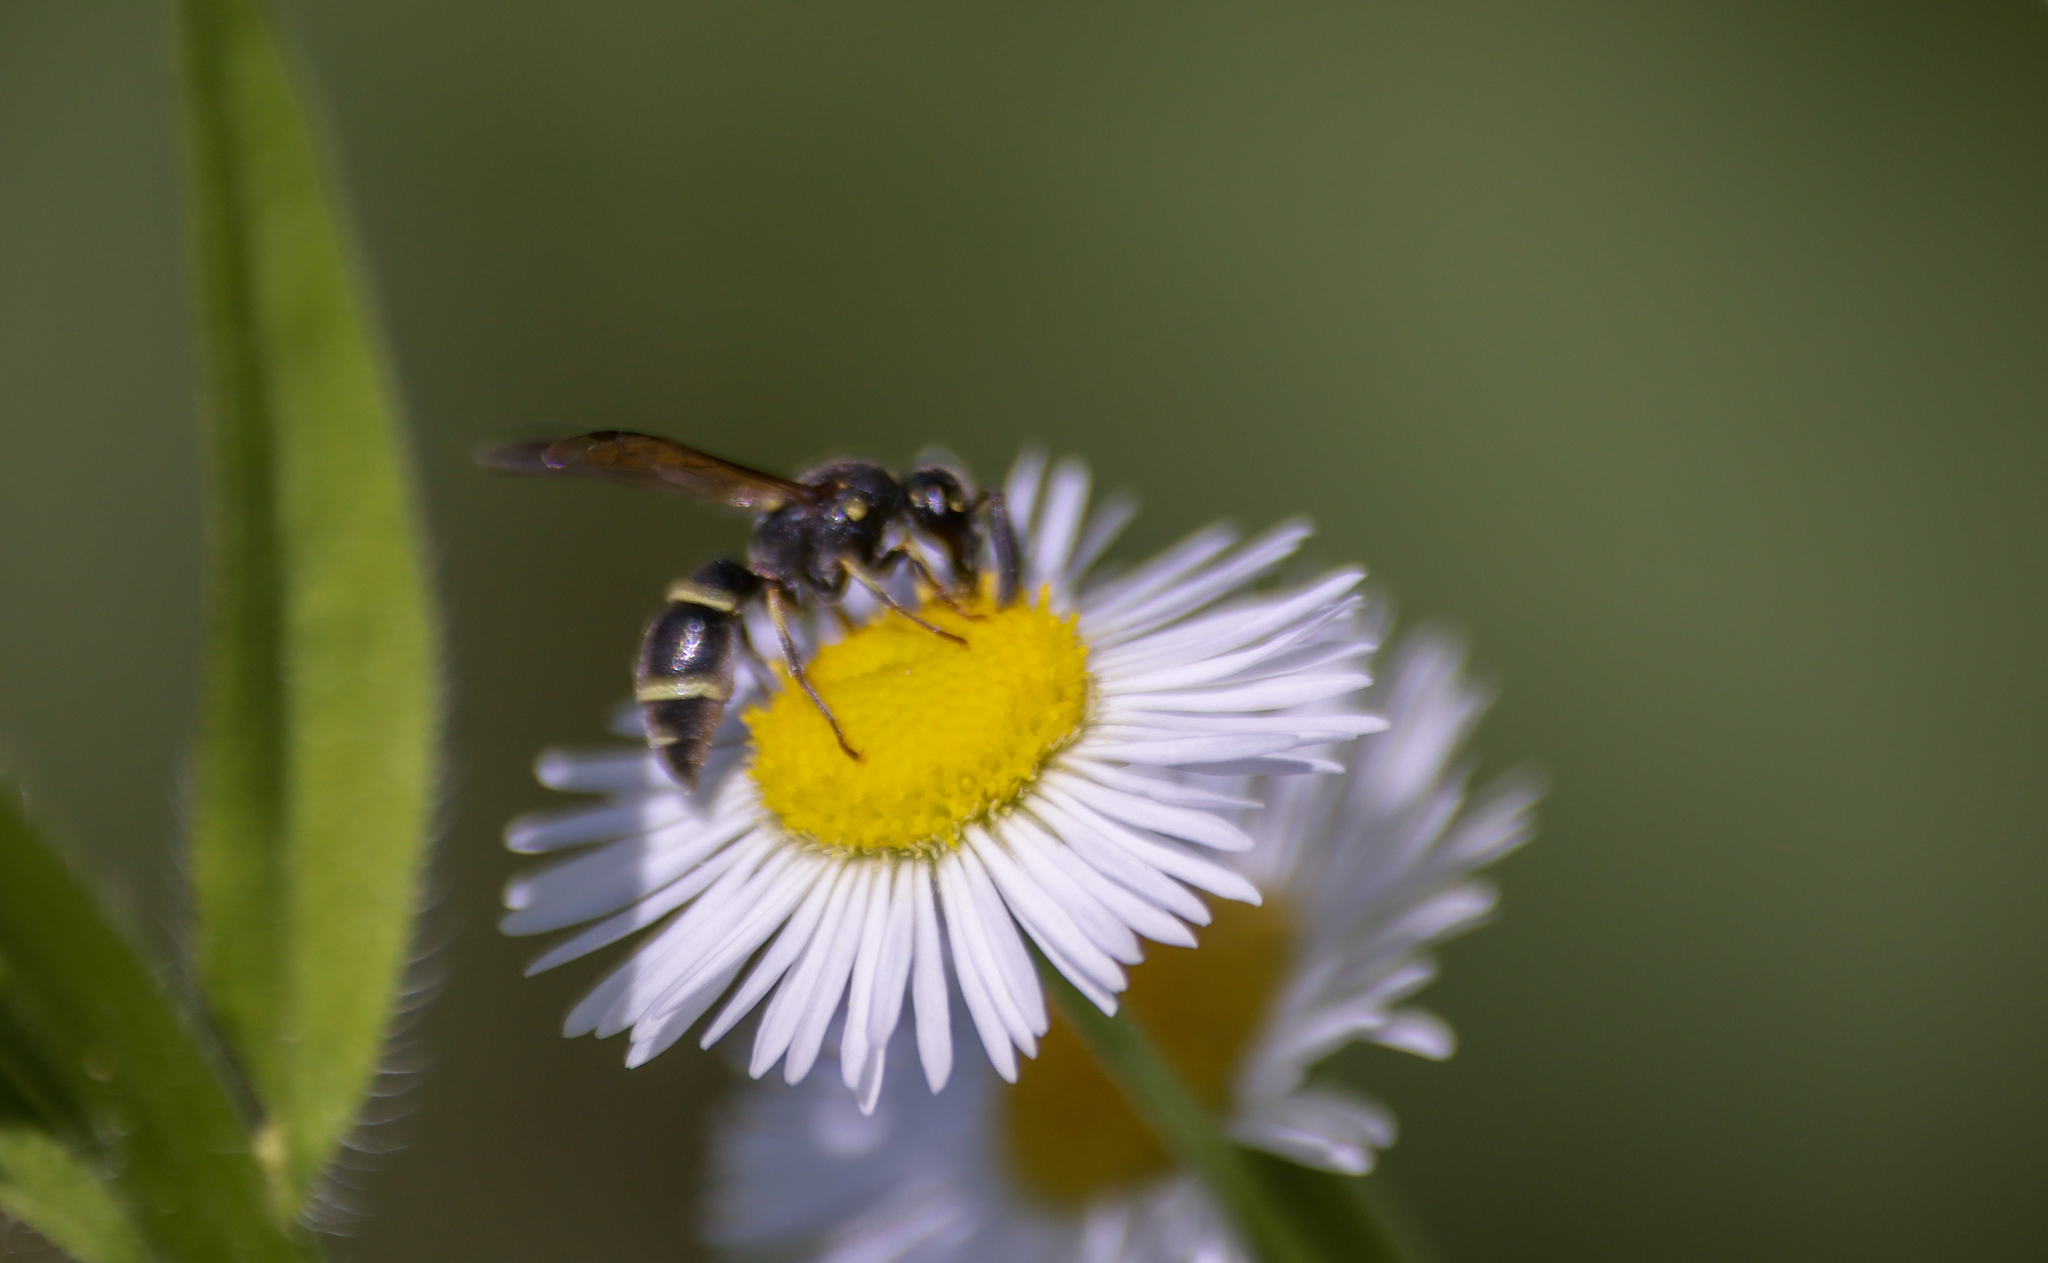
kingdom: Animalia
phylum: Arthropoda
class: Insecta
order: Hymenoptera
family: Eumenidae
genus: Parancistrocerus
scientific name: Parancistrocerus pensylvanicus
